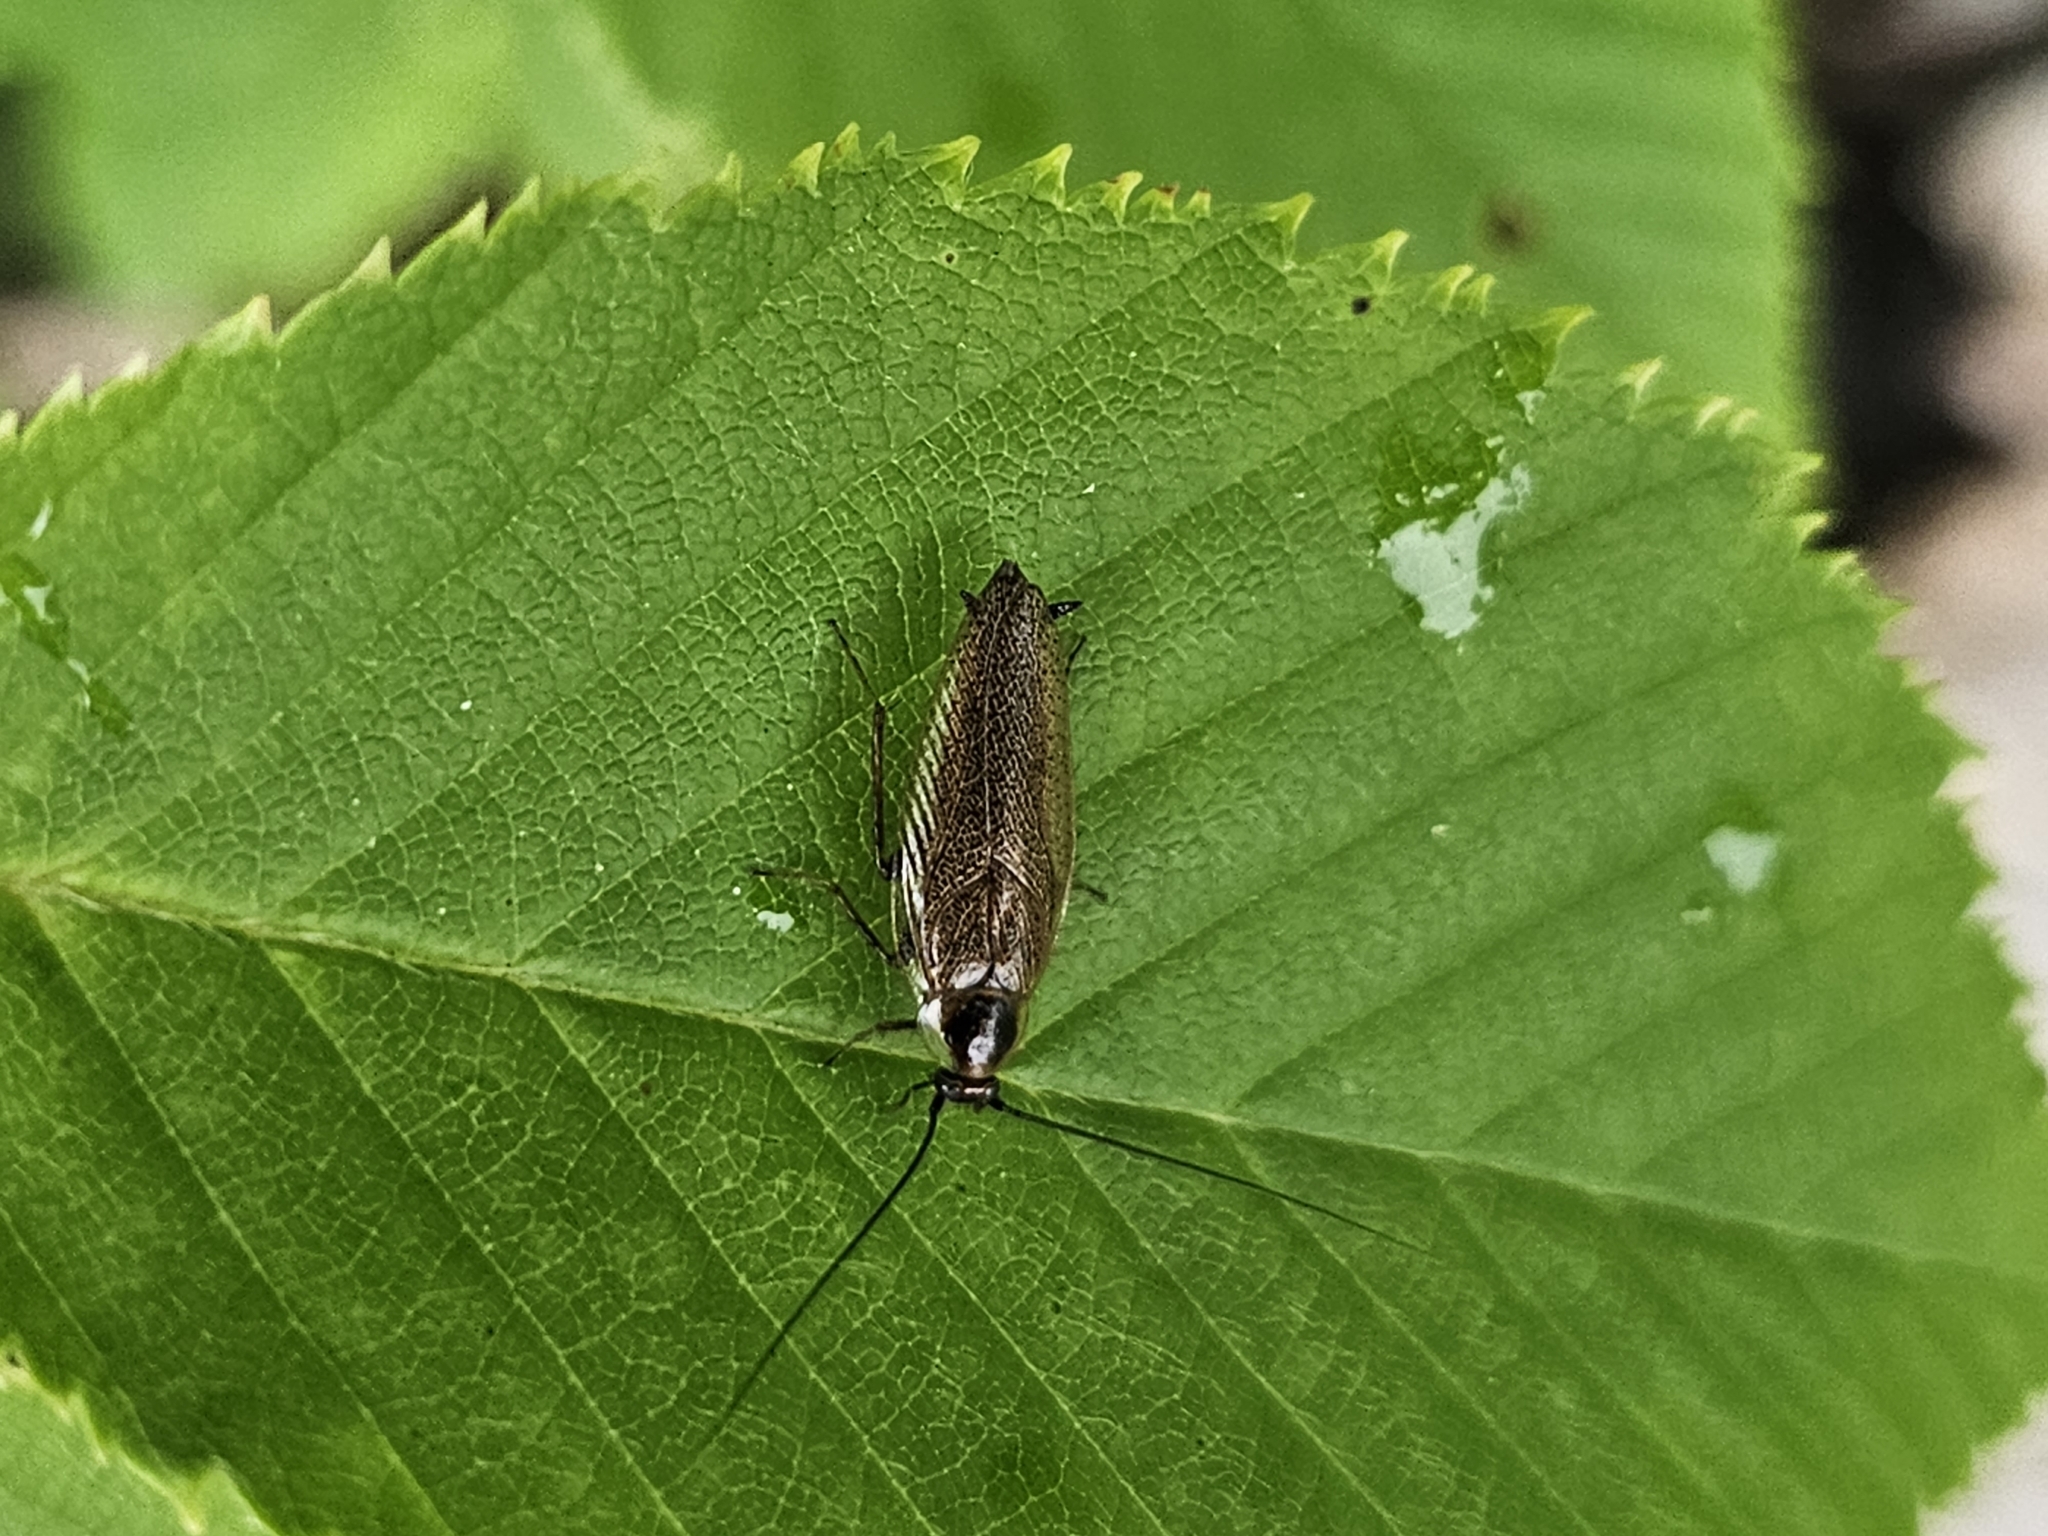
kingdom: Animalia
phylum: Arthropoda
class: Insecta
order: Blattodea
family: Ectobiidae
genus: Ectobius
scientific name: Ectobius lapponicus
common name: Dusky cockroach
